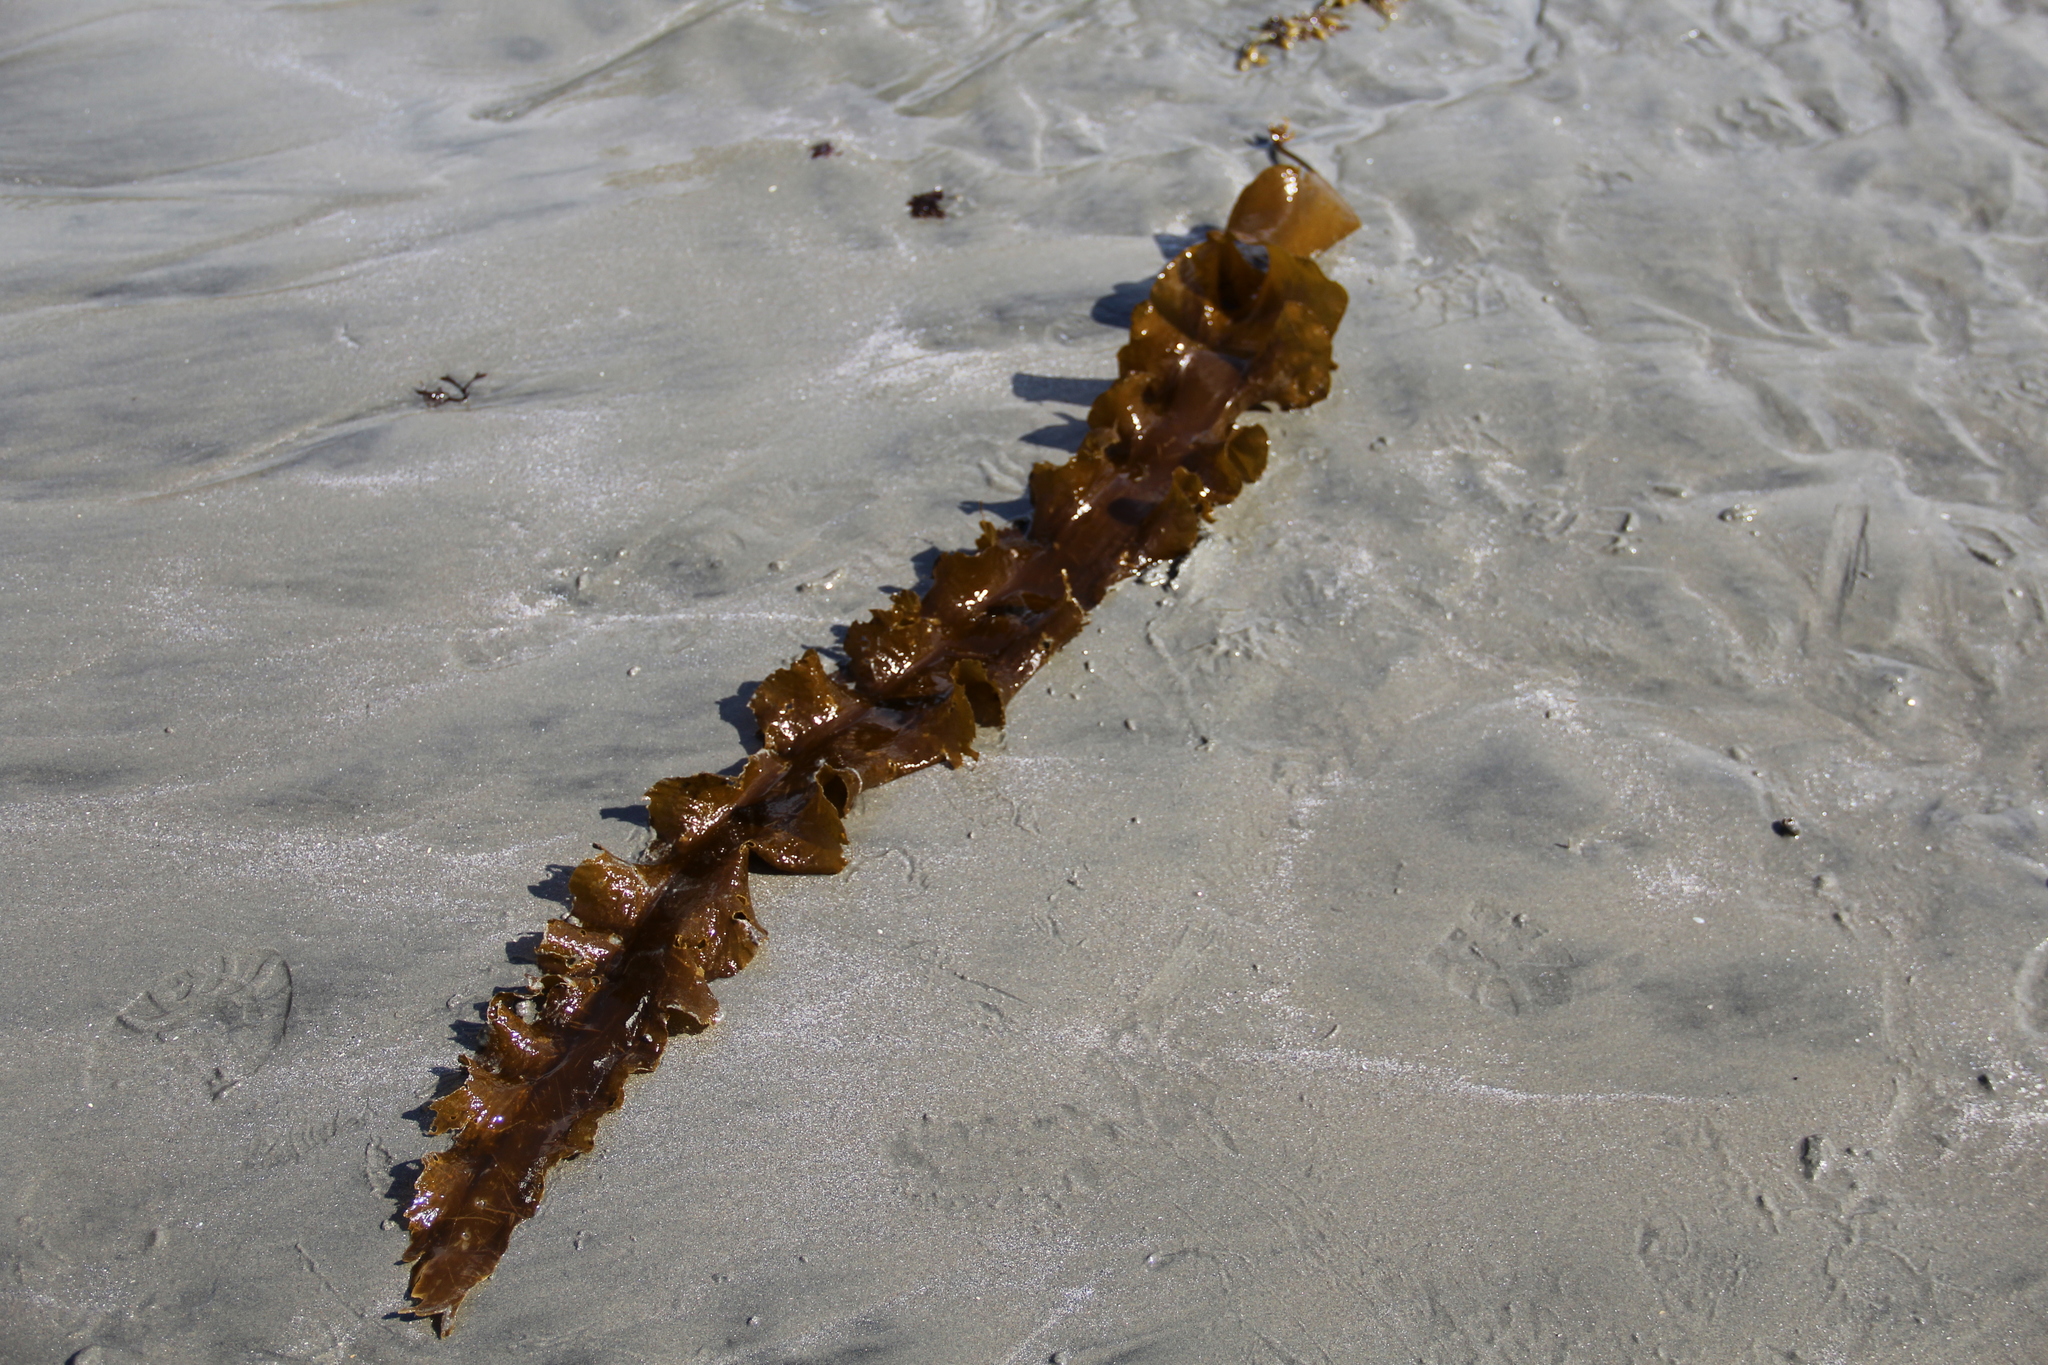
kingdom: Chromista
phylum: Ochrophyta
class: Phaeophyceae
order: Laminariales
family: Laminariaceae
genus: Saccharina
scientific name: Saccharina latissima
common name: Poor man's weather glass
